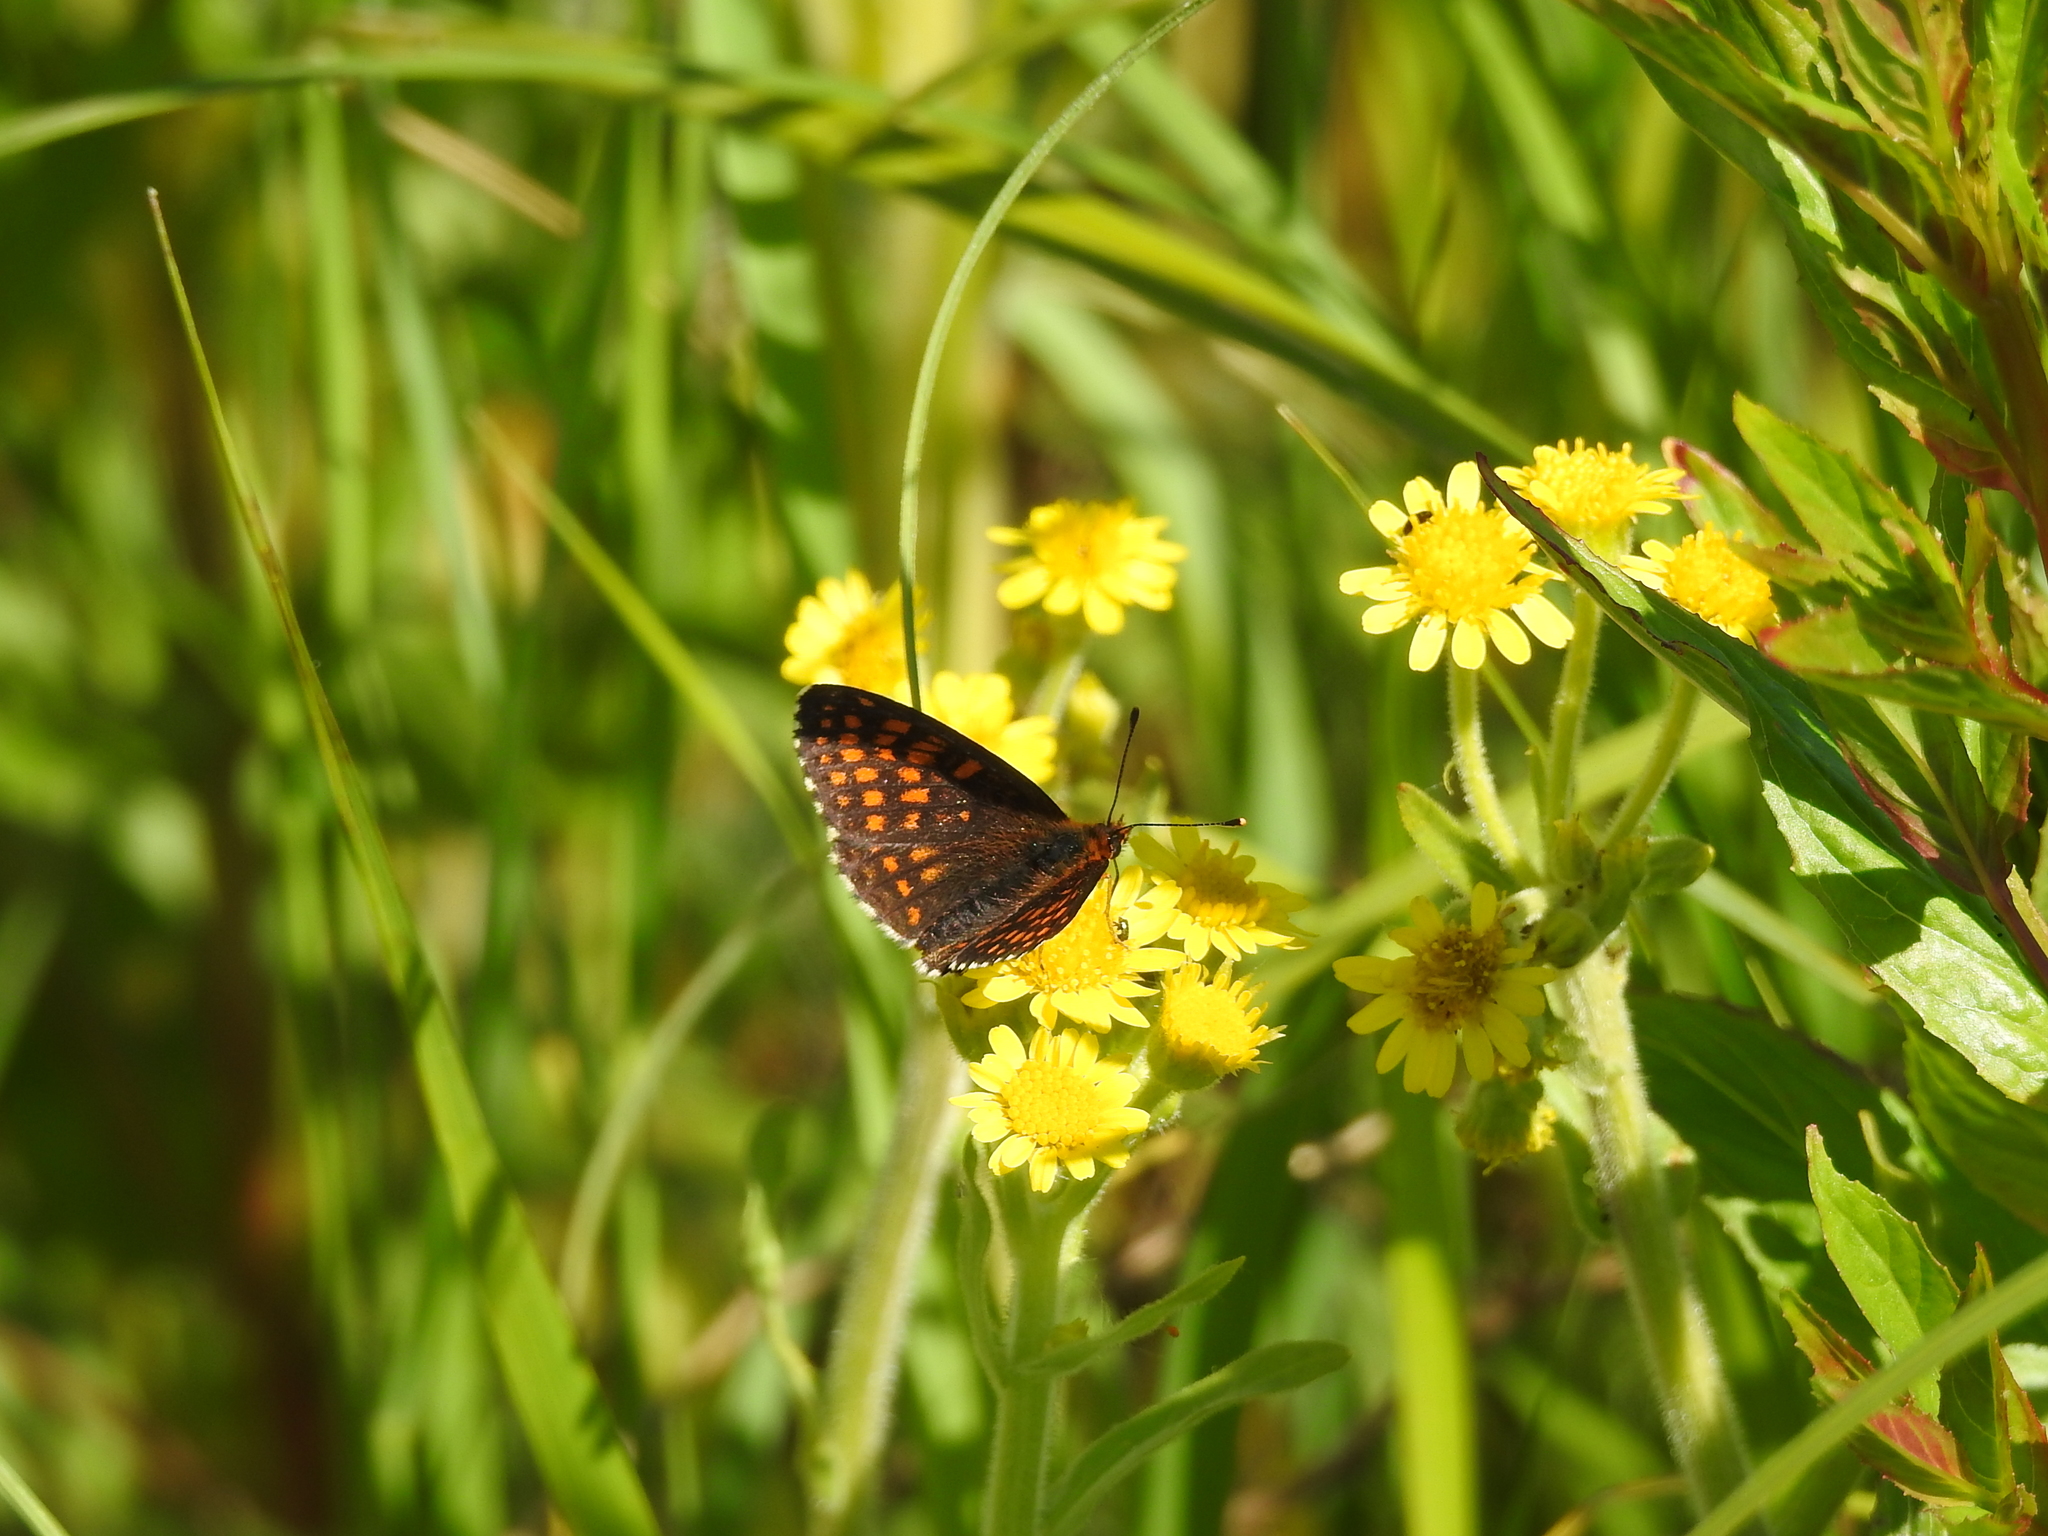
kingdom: Animalia
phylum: Arthropoda
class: Insecta
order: Lepidoptera
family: Nymphalidae
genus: Melitaea
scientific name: Melitaea athalia
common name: Heath fritillary
